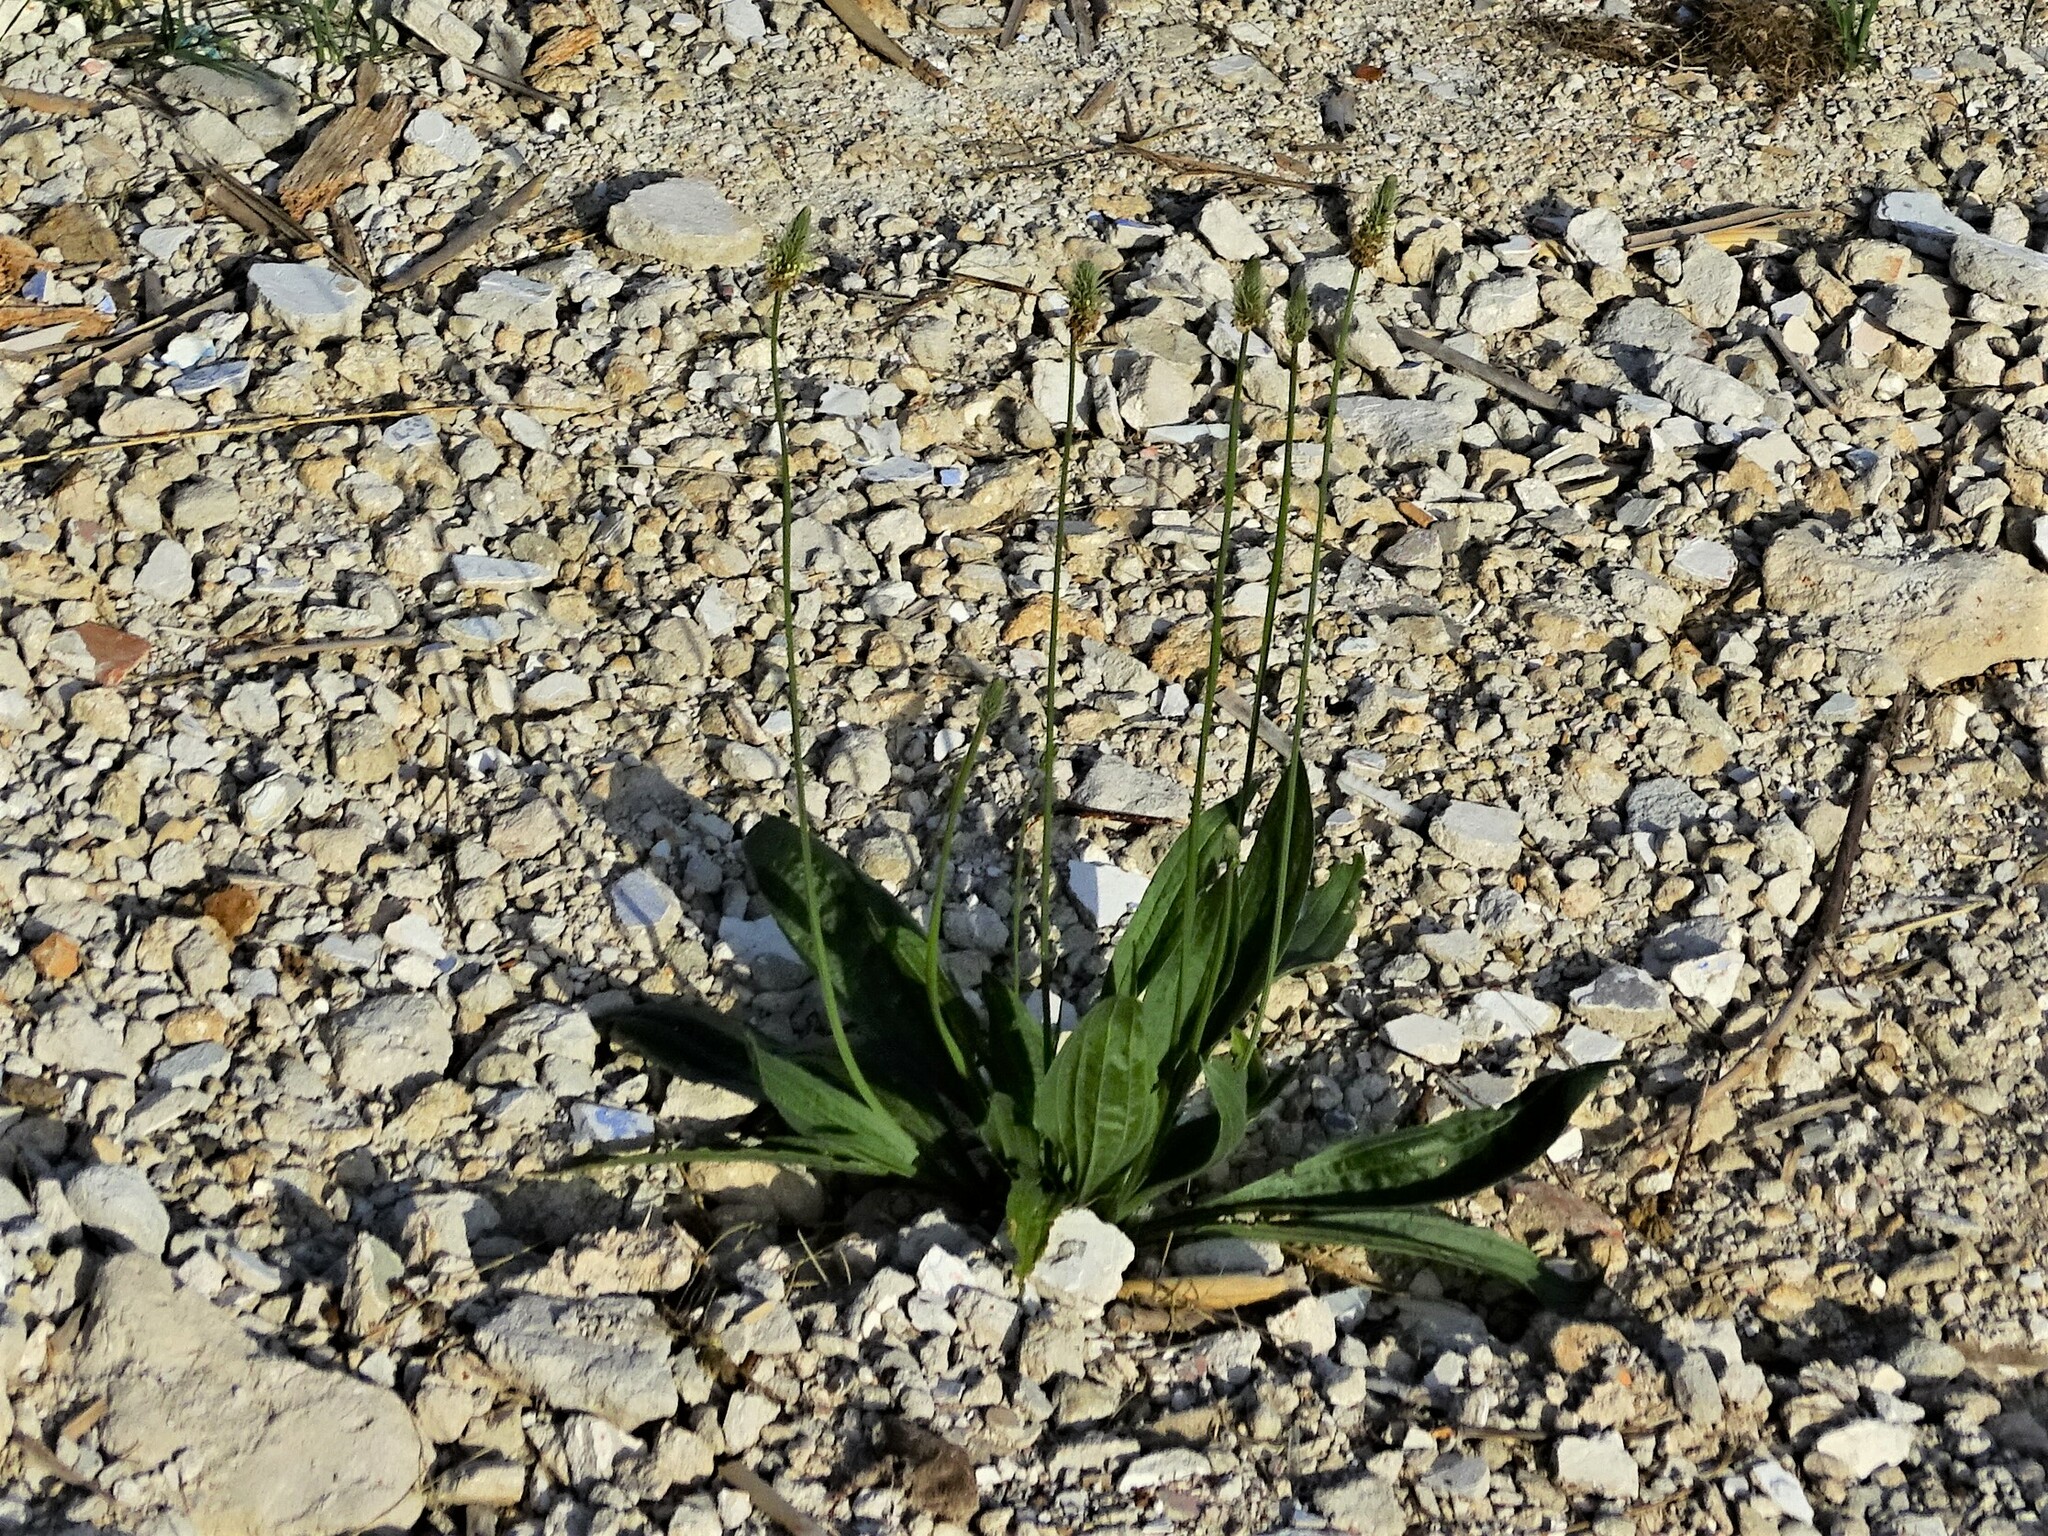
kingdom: Plantae
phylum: Tracheophyta
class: Magnoliopsida
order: Lamiales
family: Plantaginaceae
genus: Plantago
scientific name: Plantago lanceolata
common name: Ribwort plantain
